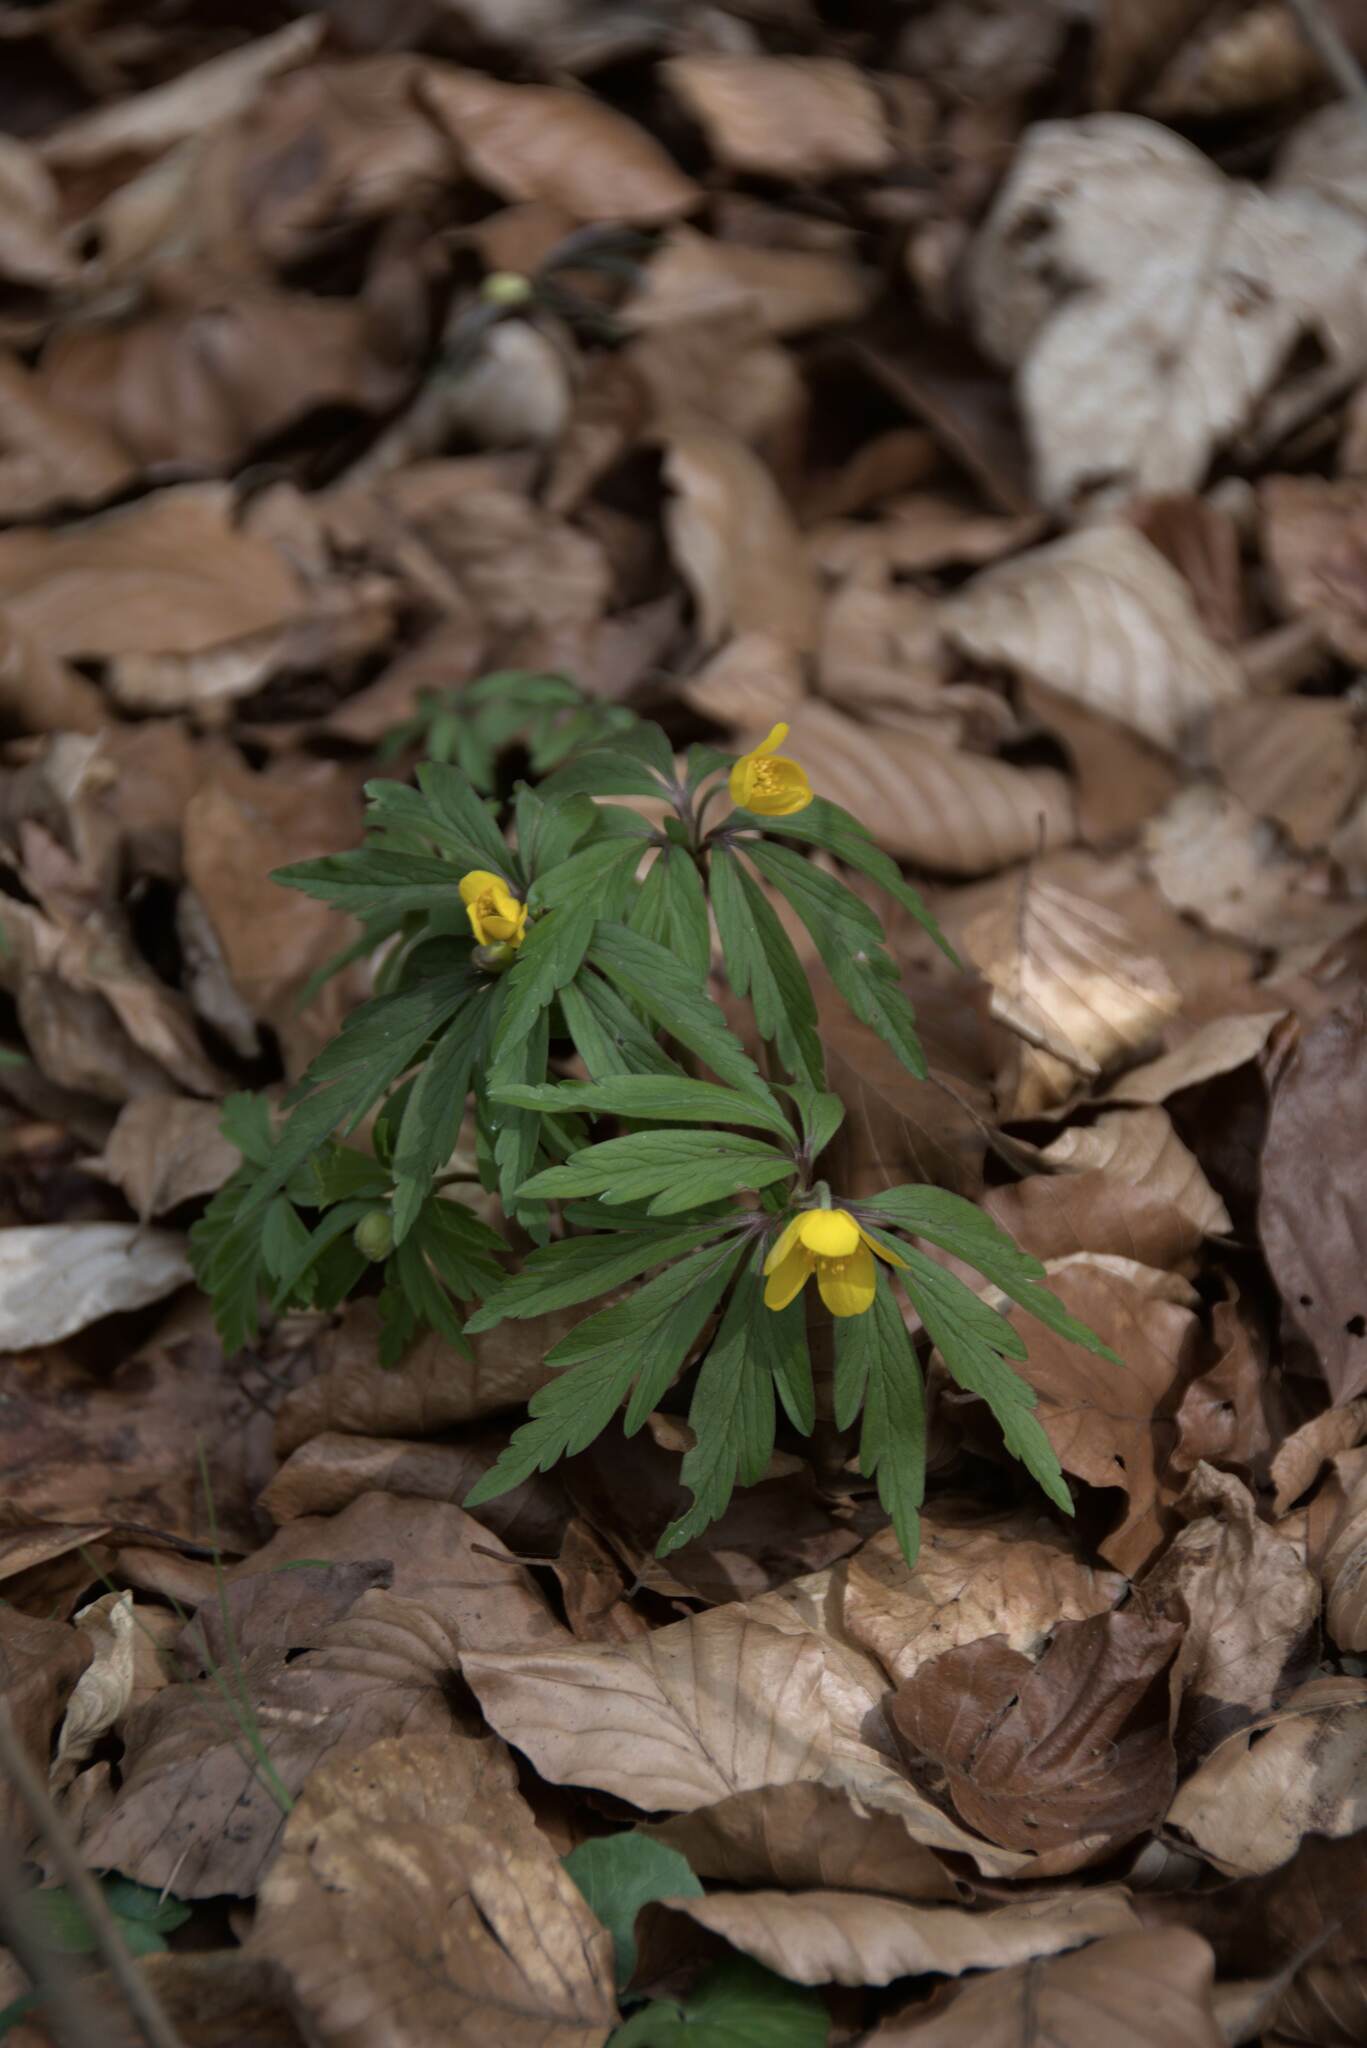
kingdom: Plantae
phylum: Tracheophyta
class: Magnoliopsida
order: Ranunculales
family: Ranunculaceae
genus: Anemone
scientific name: Anemone ranunculoides
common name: Yellow anemone
